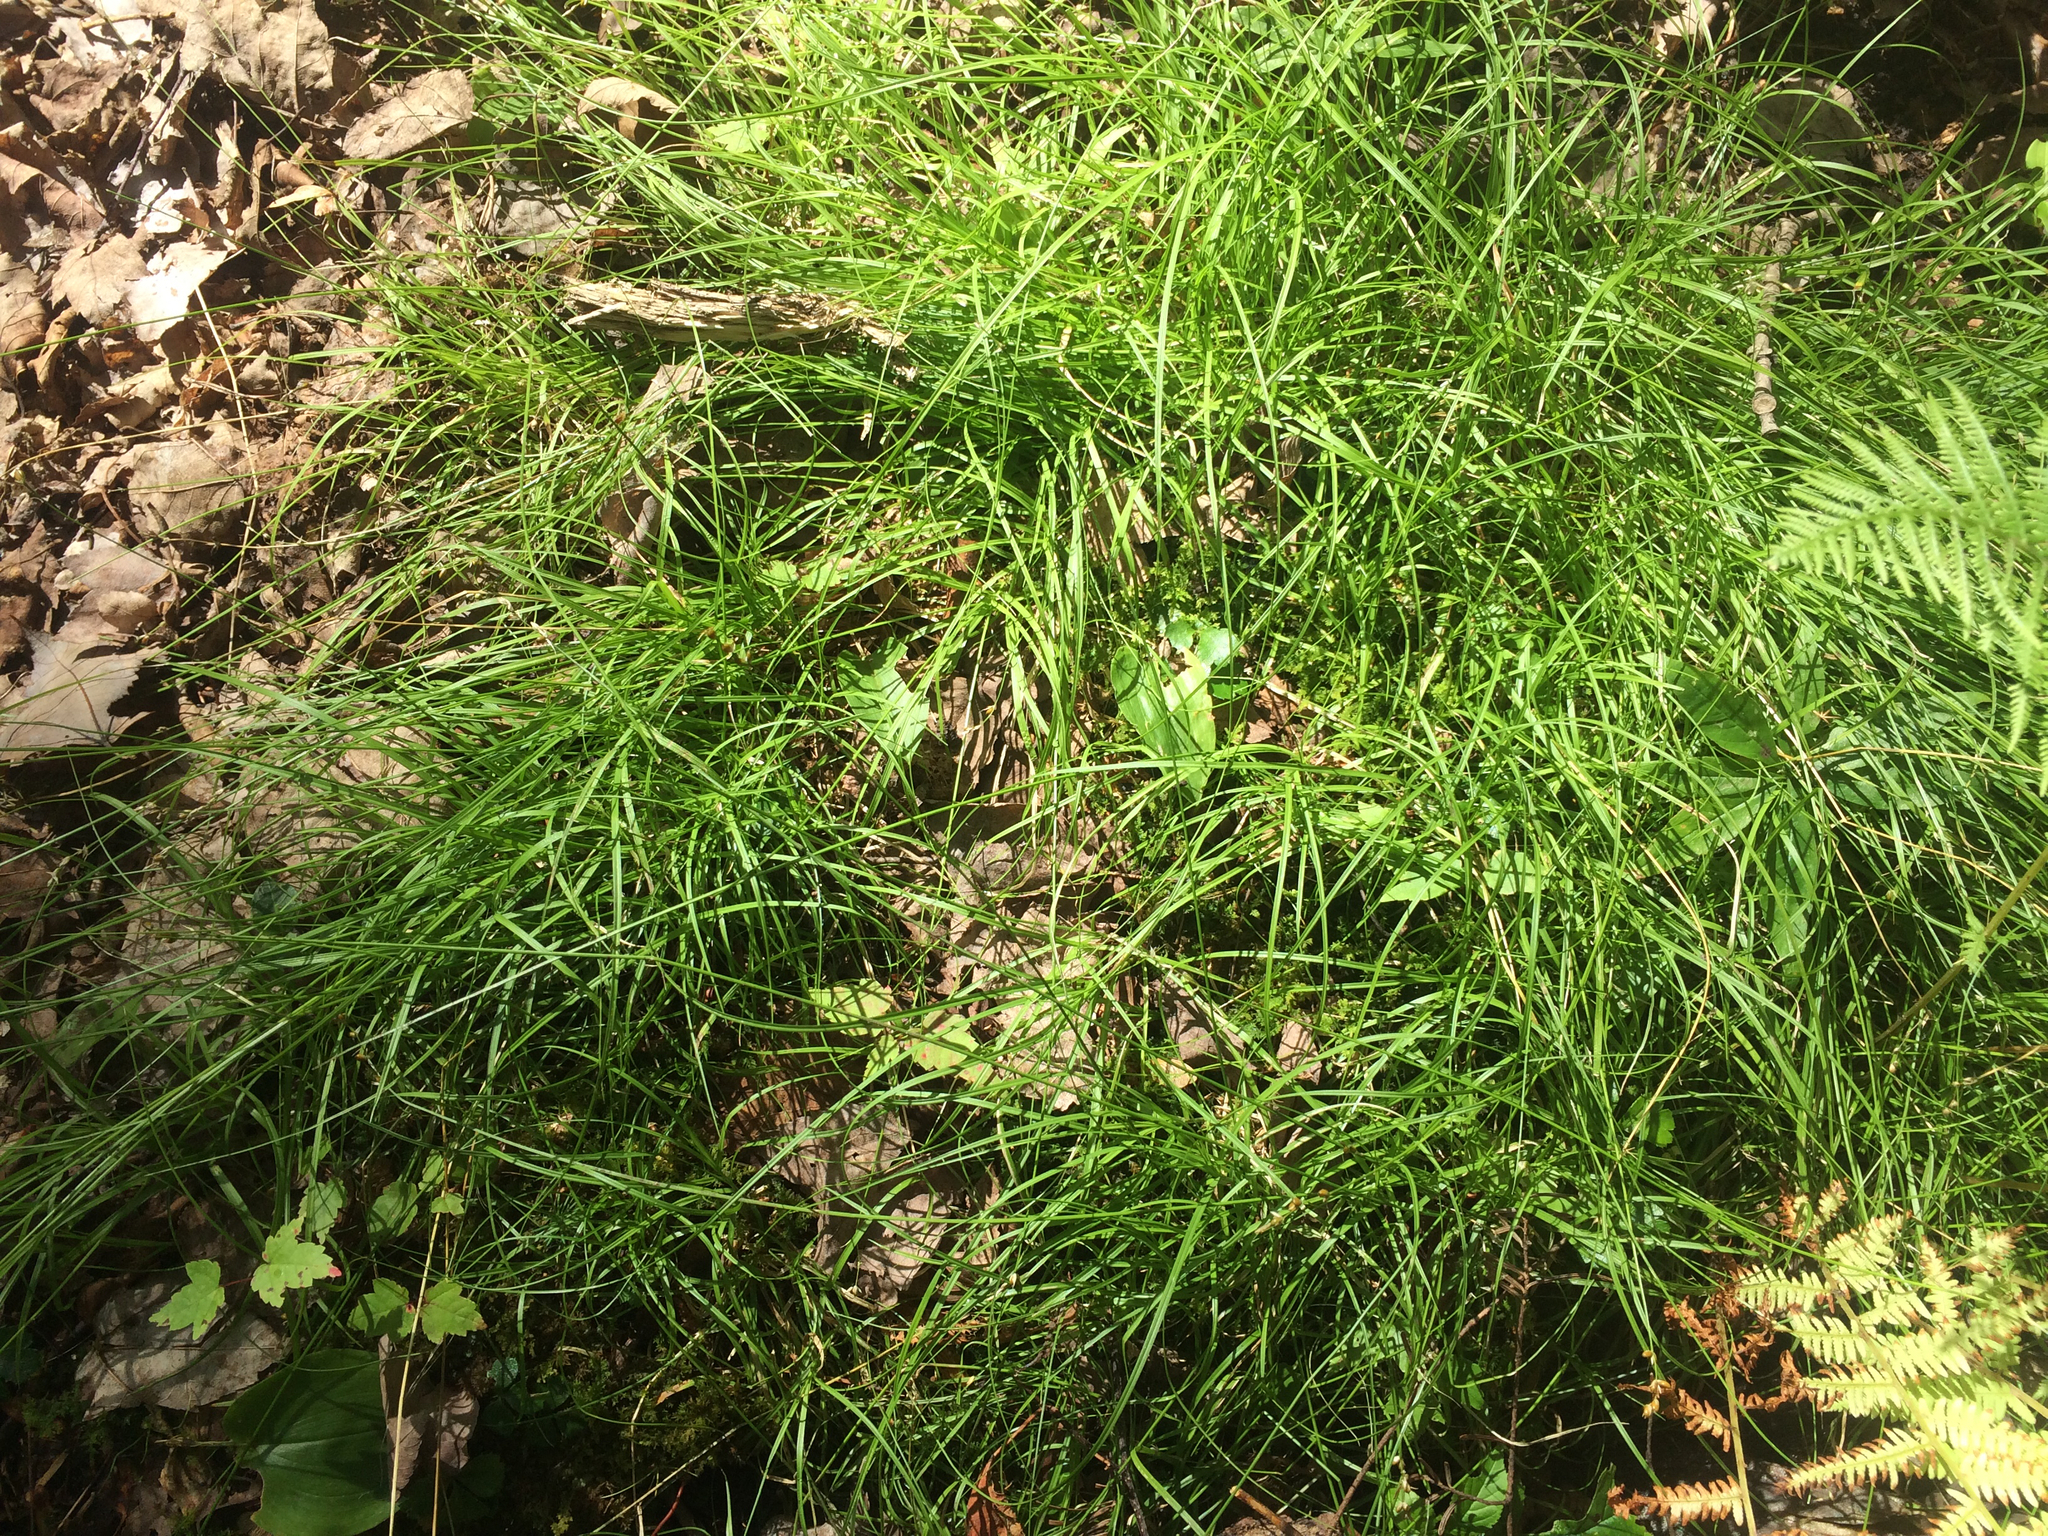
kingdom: Plantae
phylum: Tracheophyta
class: Liliopsida
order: Poales
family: Cyperaceae
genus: Carex
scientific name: Carex disperma
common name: Short-leaved sedge
